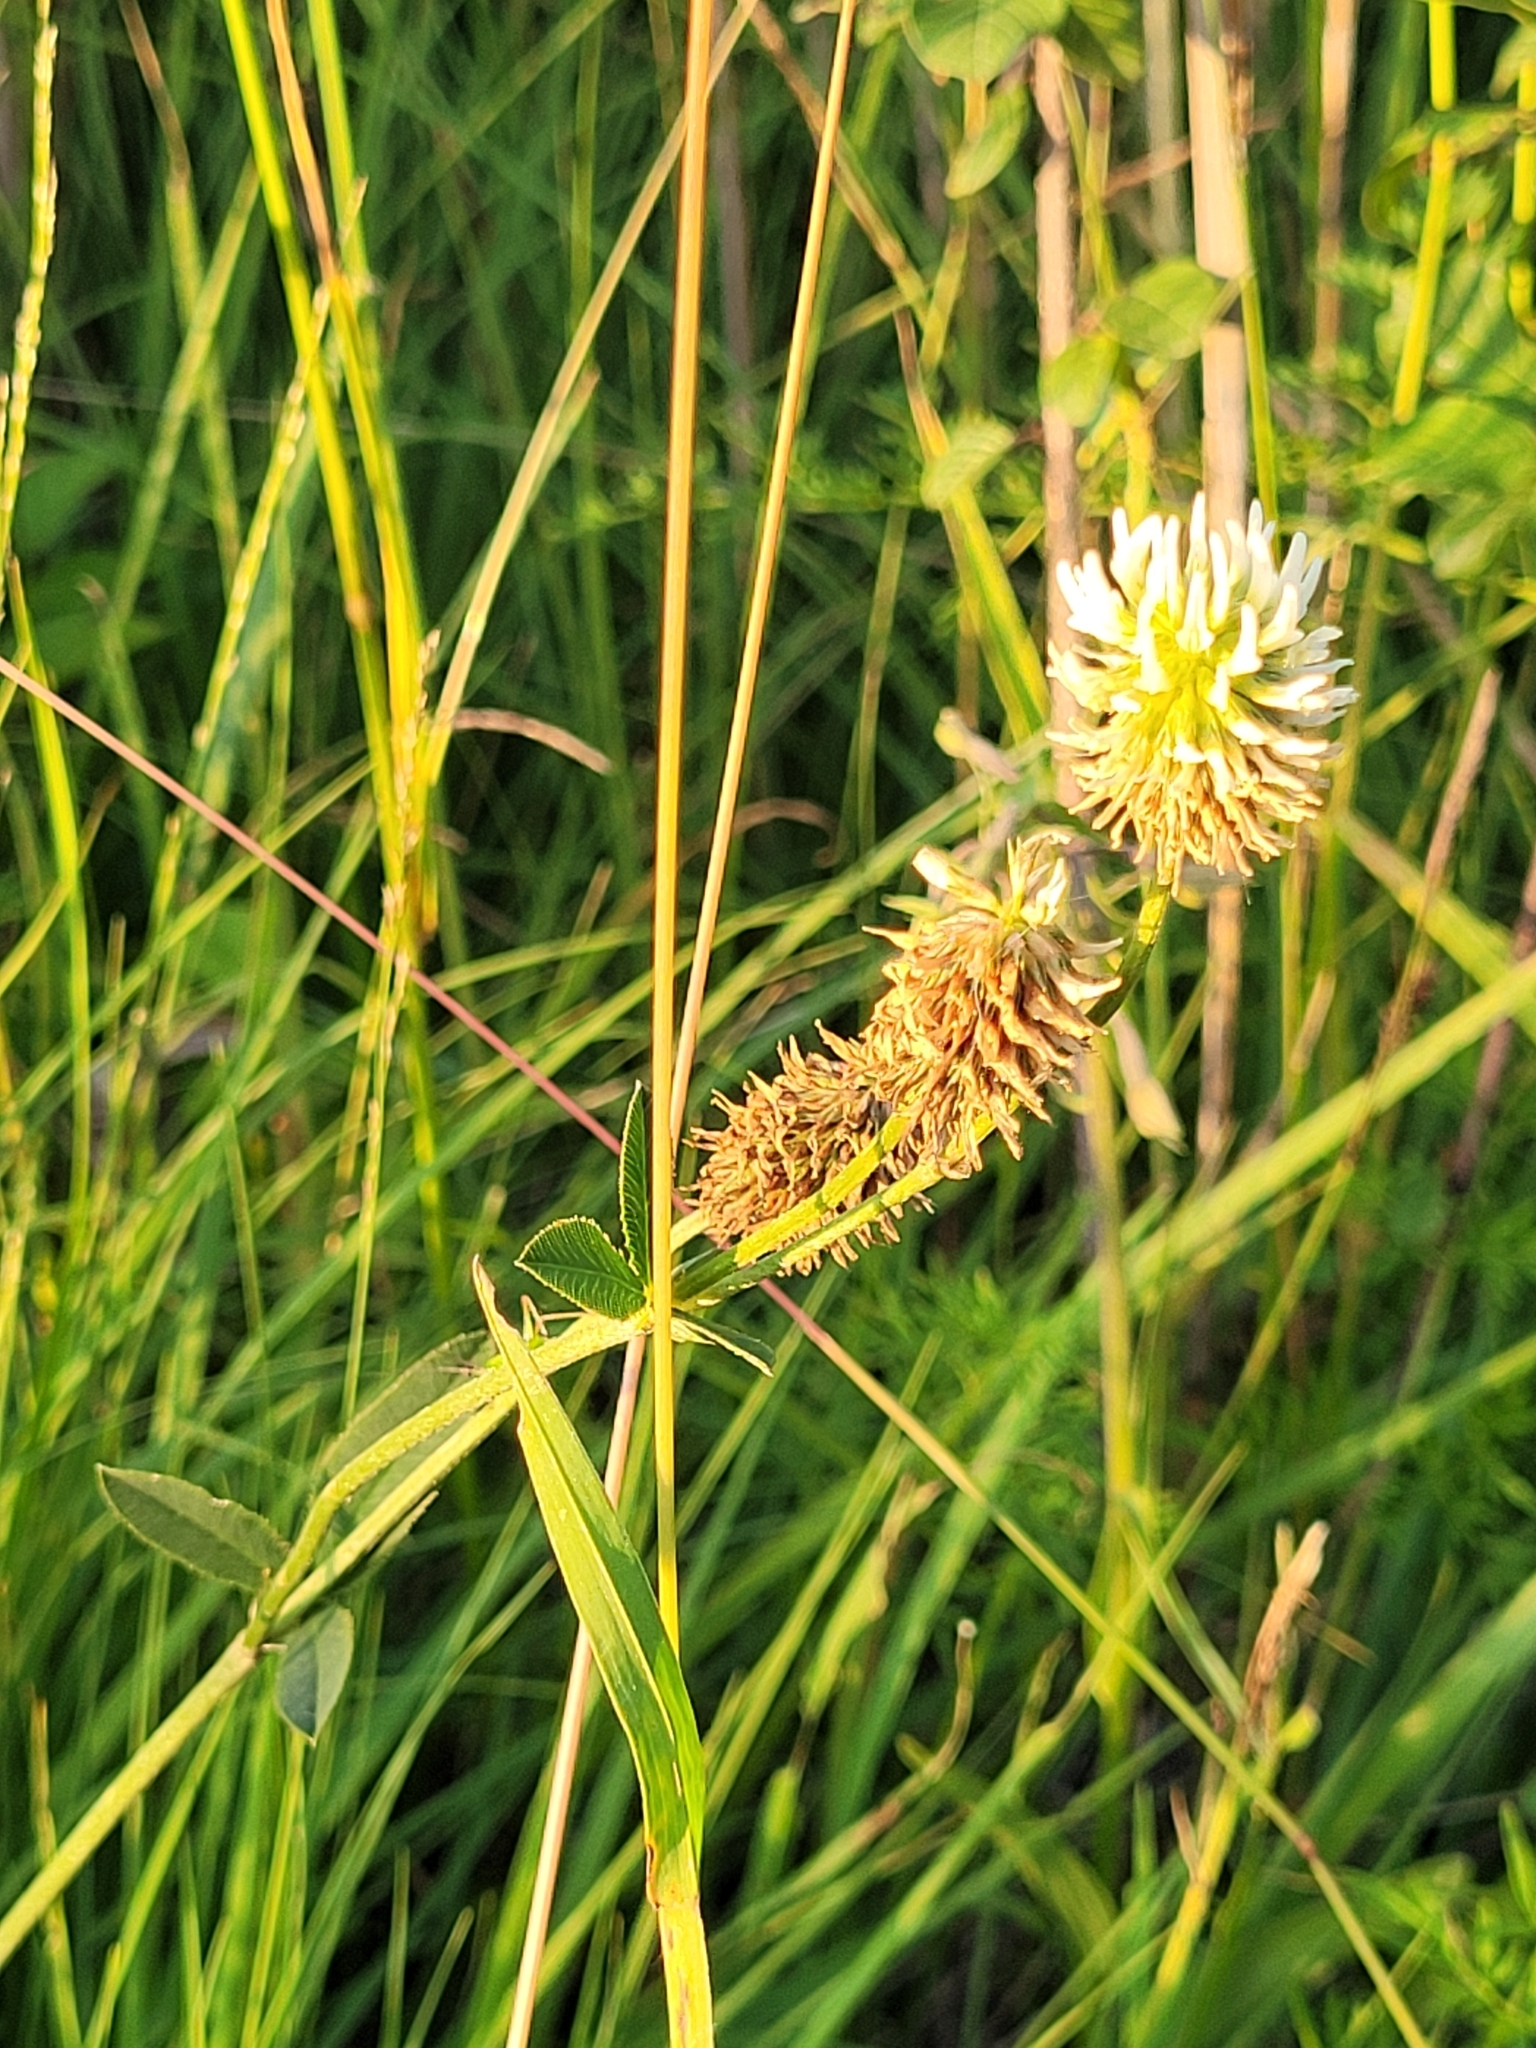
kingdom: Plantae
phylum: Tracheophyta
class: Magnoliopsida
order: Fabales
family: Fabaceae
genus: Trifolium
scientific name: Trifolium montanum
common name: Mountain clover
